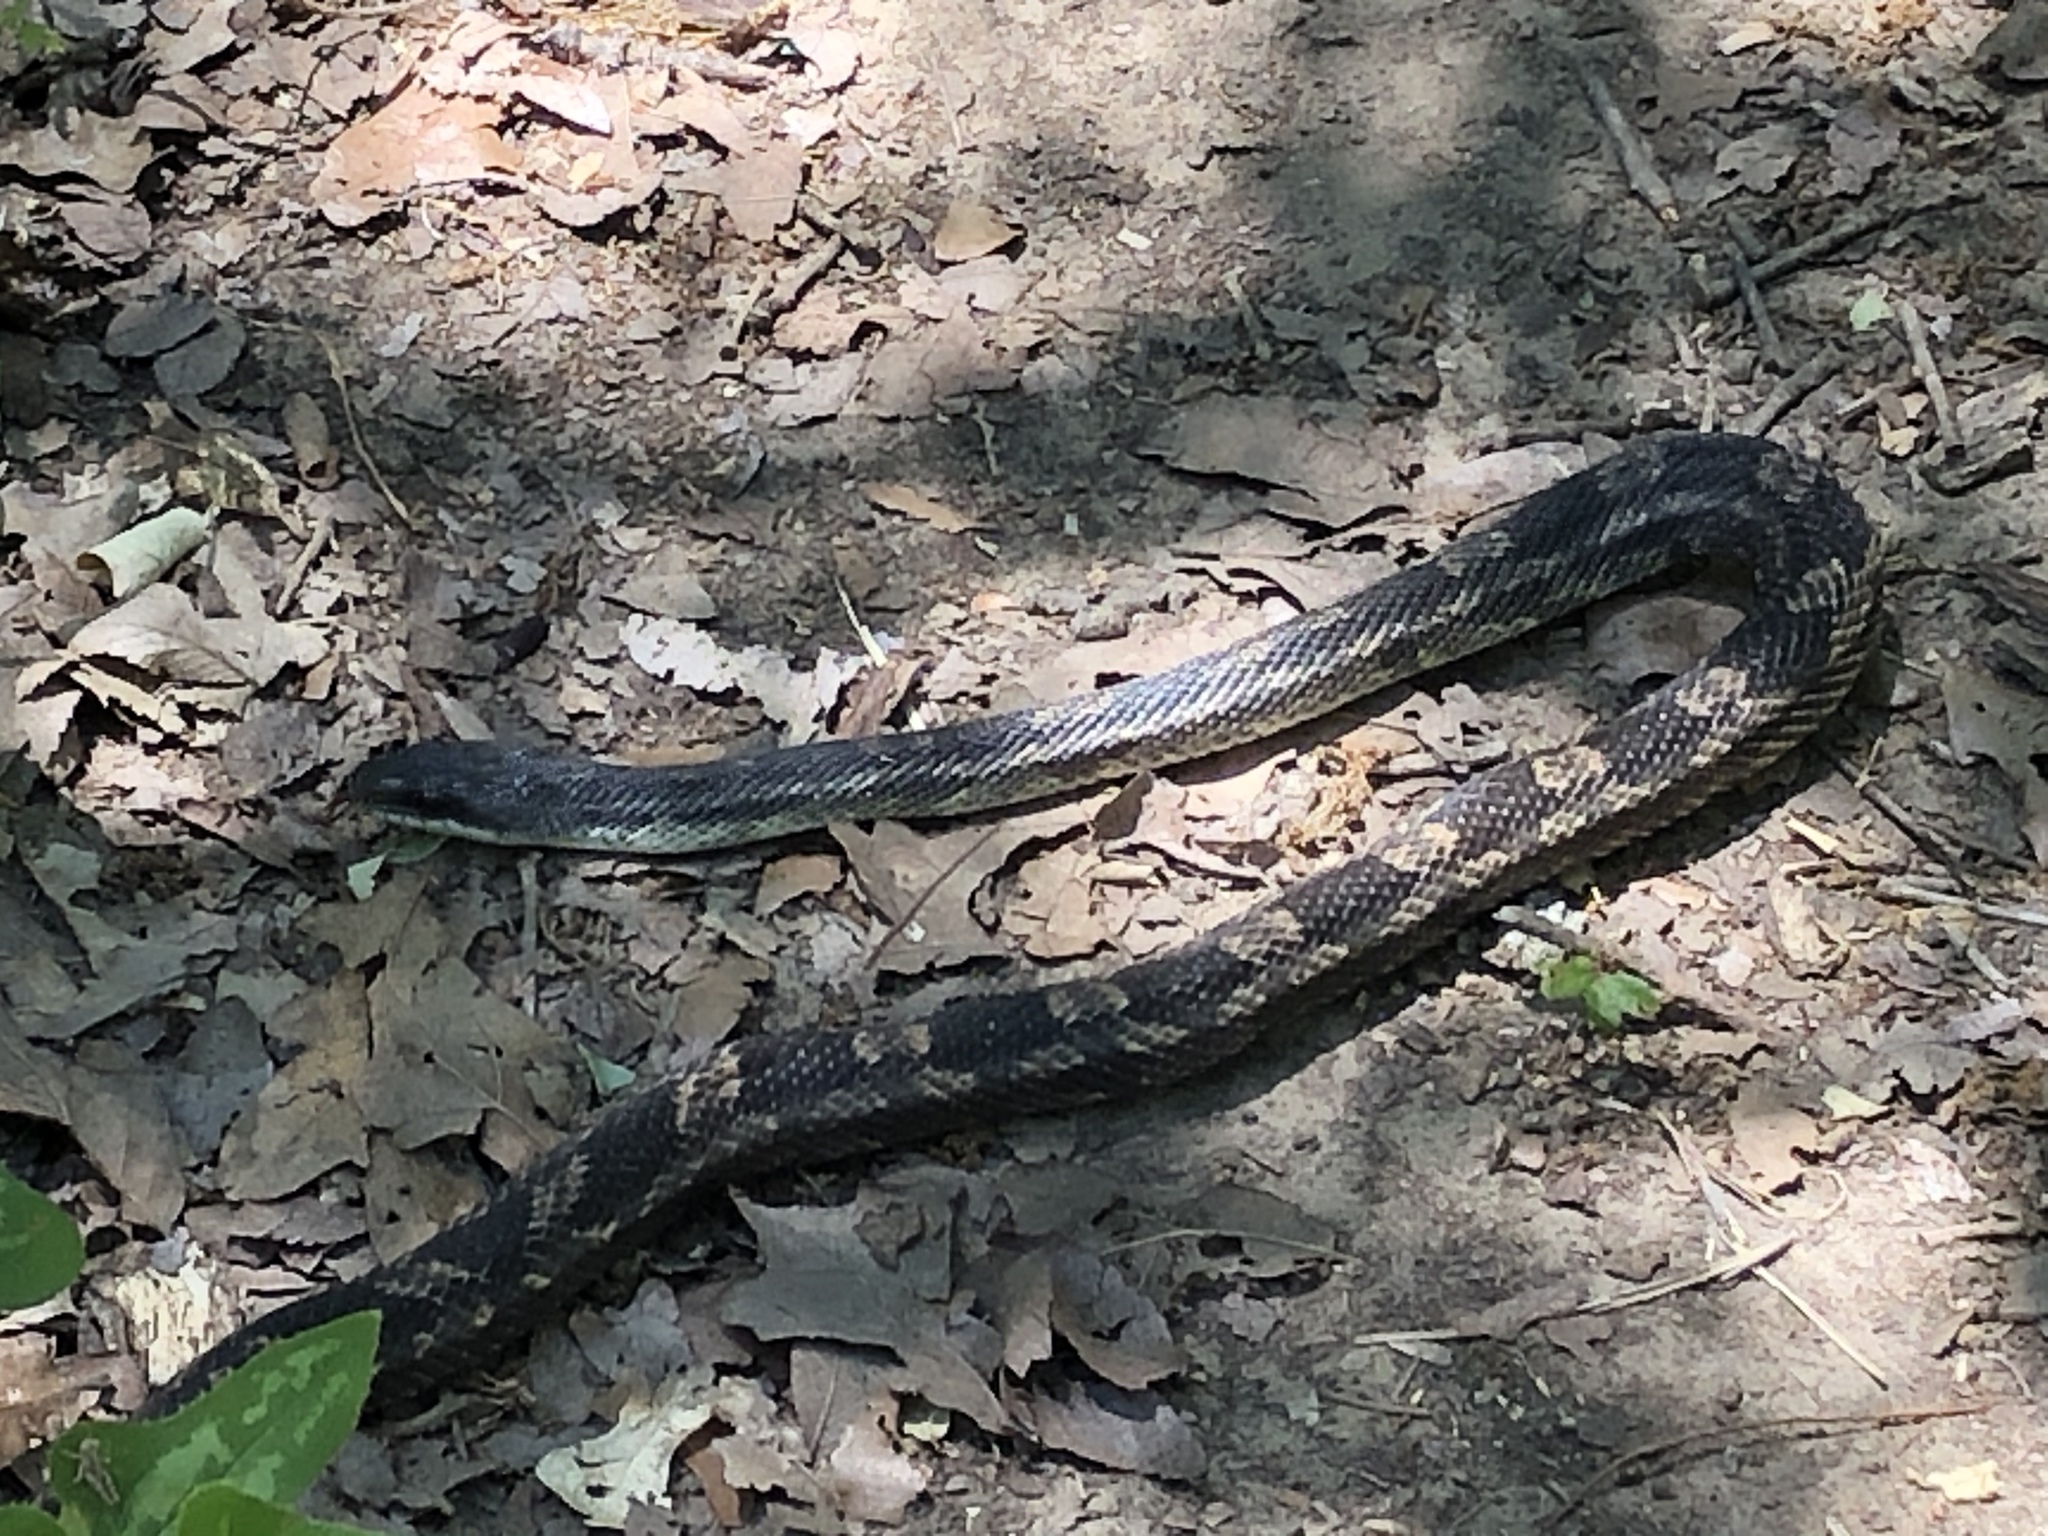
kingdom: Animalia
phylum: Chordata
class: Squamata
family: Colubridae
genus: Pantherophis
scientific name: Pantherophis obsoletus
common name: Black rat snake
